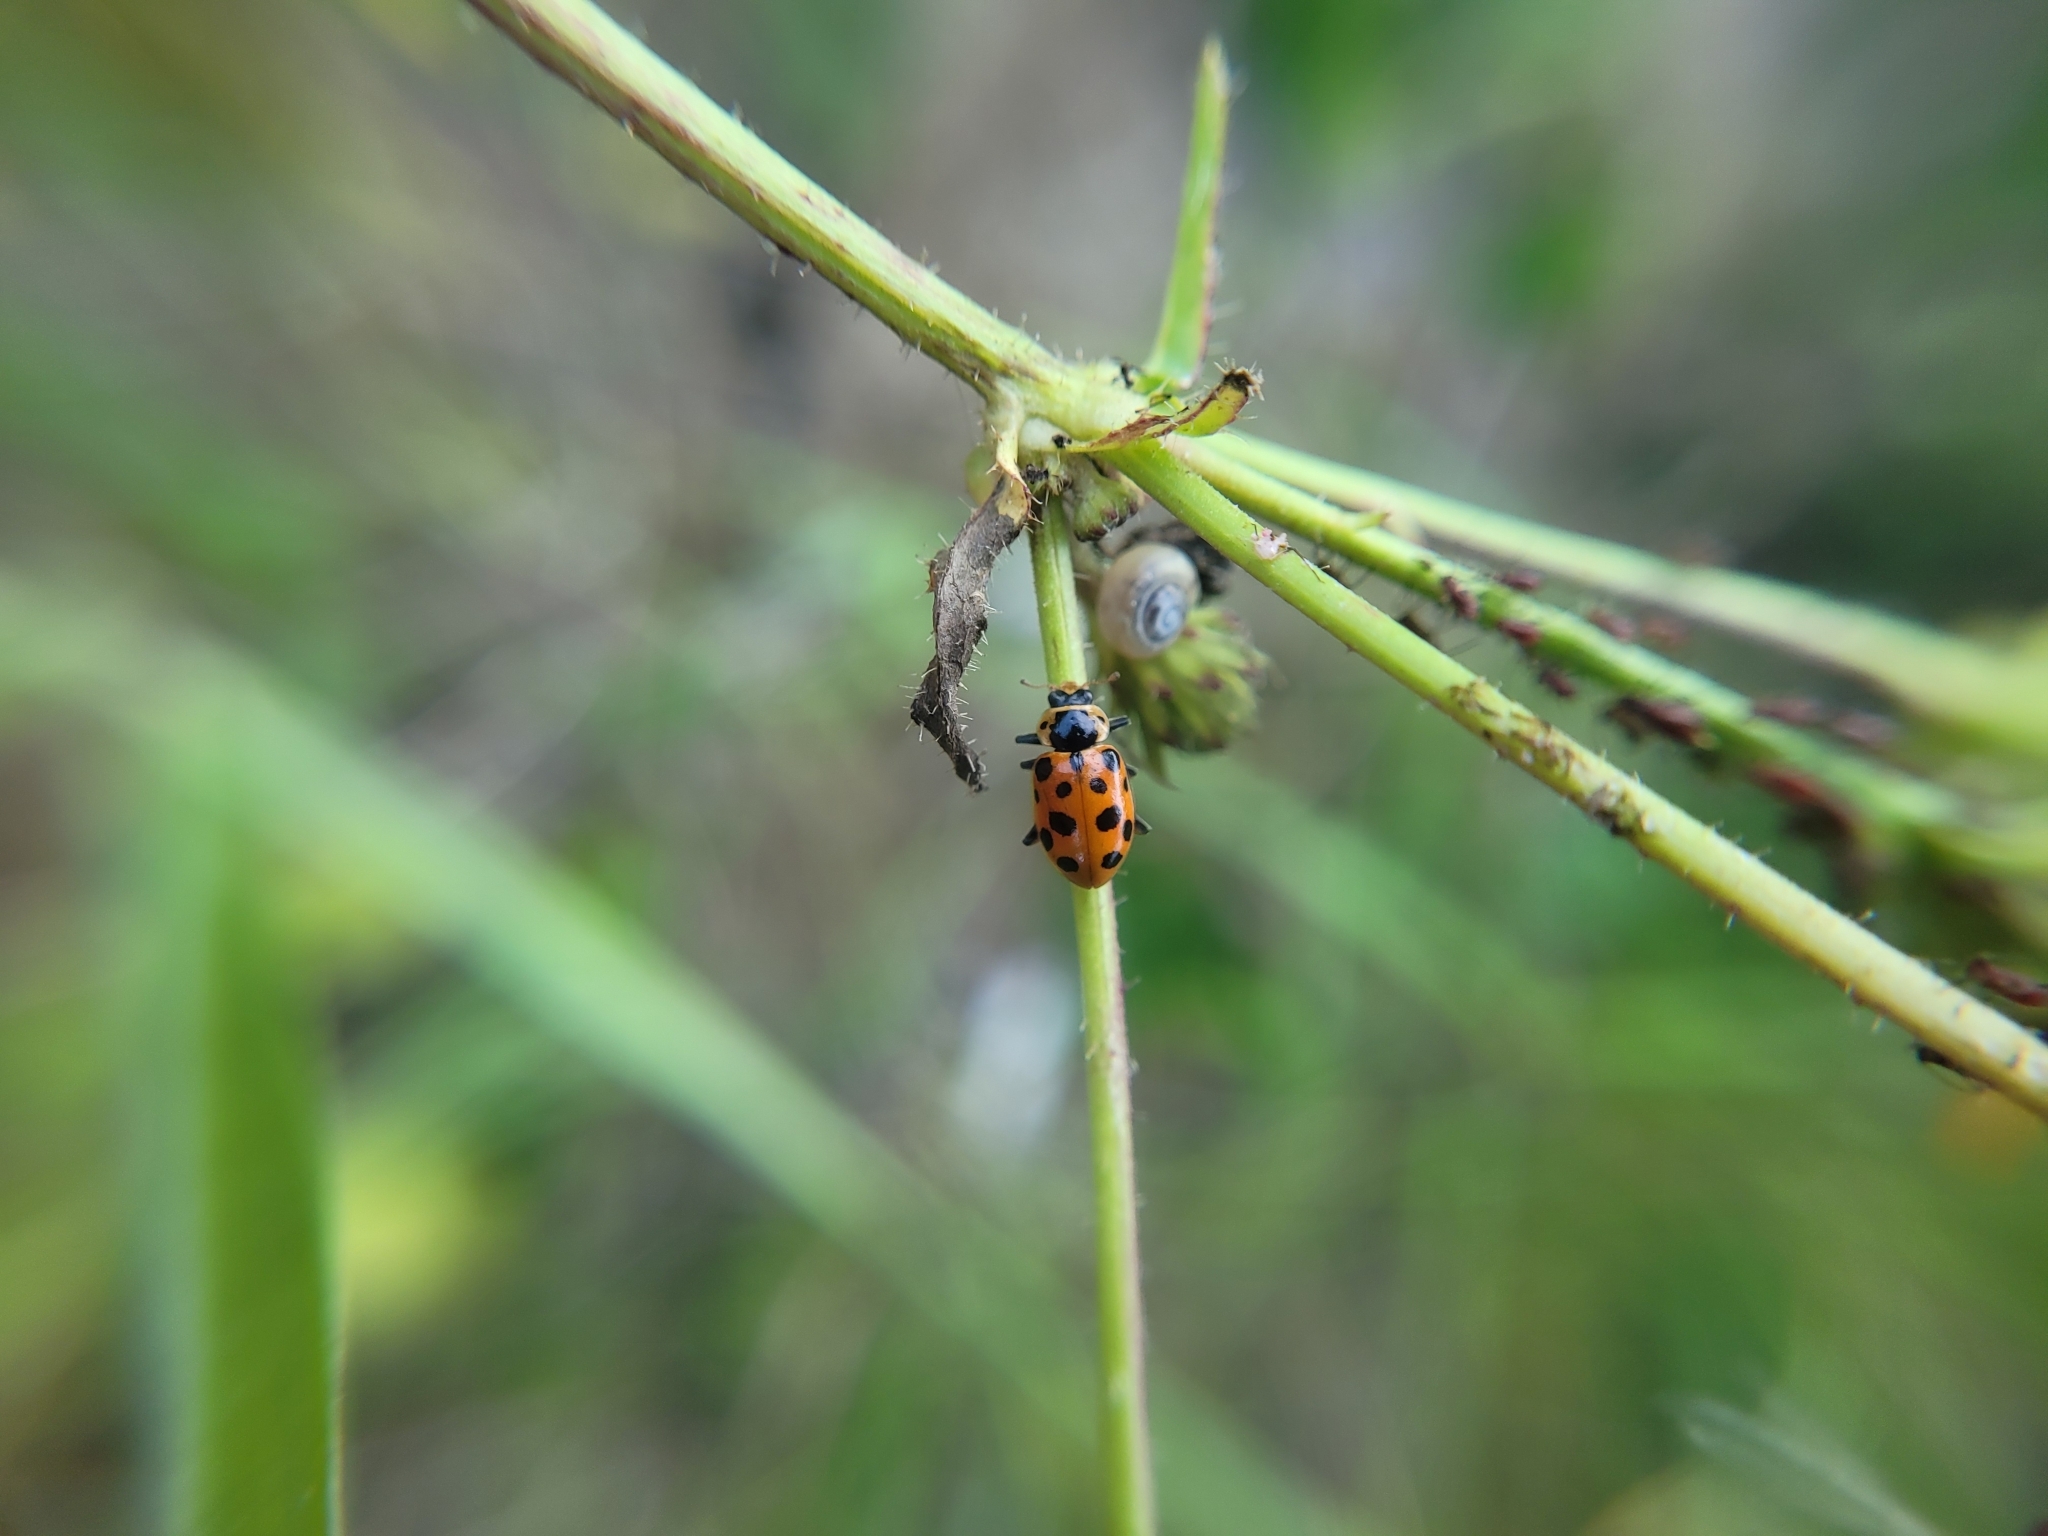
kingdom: Animalia
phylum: Arthropoda
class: Insecta
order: Coleoptera
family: Coccinellidae
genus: Hippodamia
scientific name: Hippodamia tredecimpunctata
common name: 13-spot ladybird
